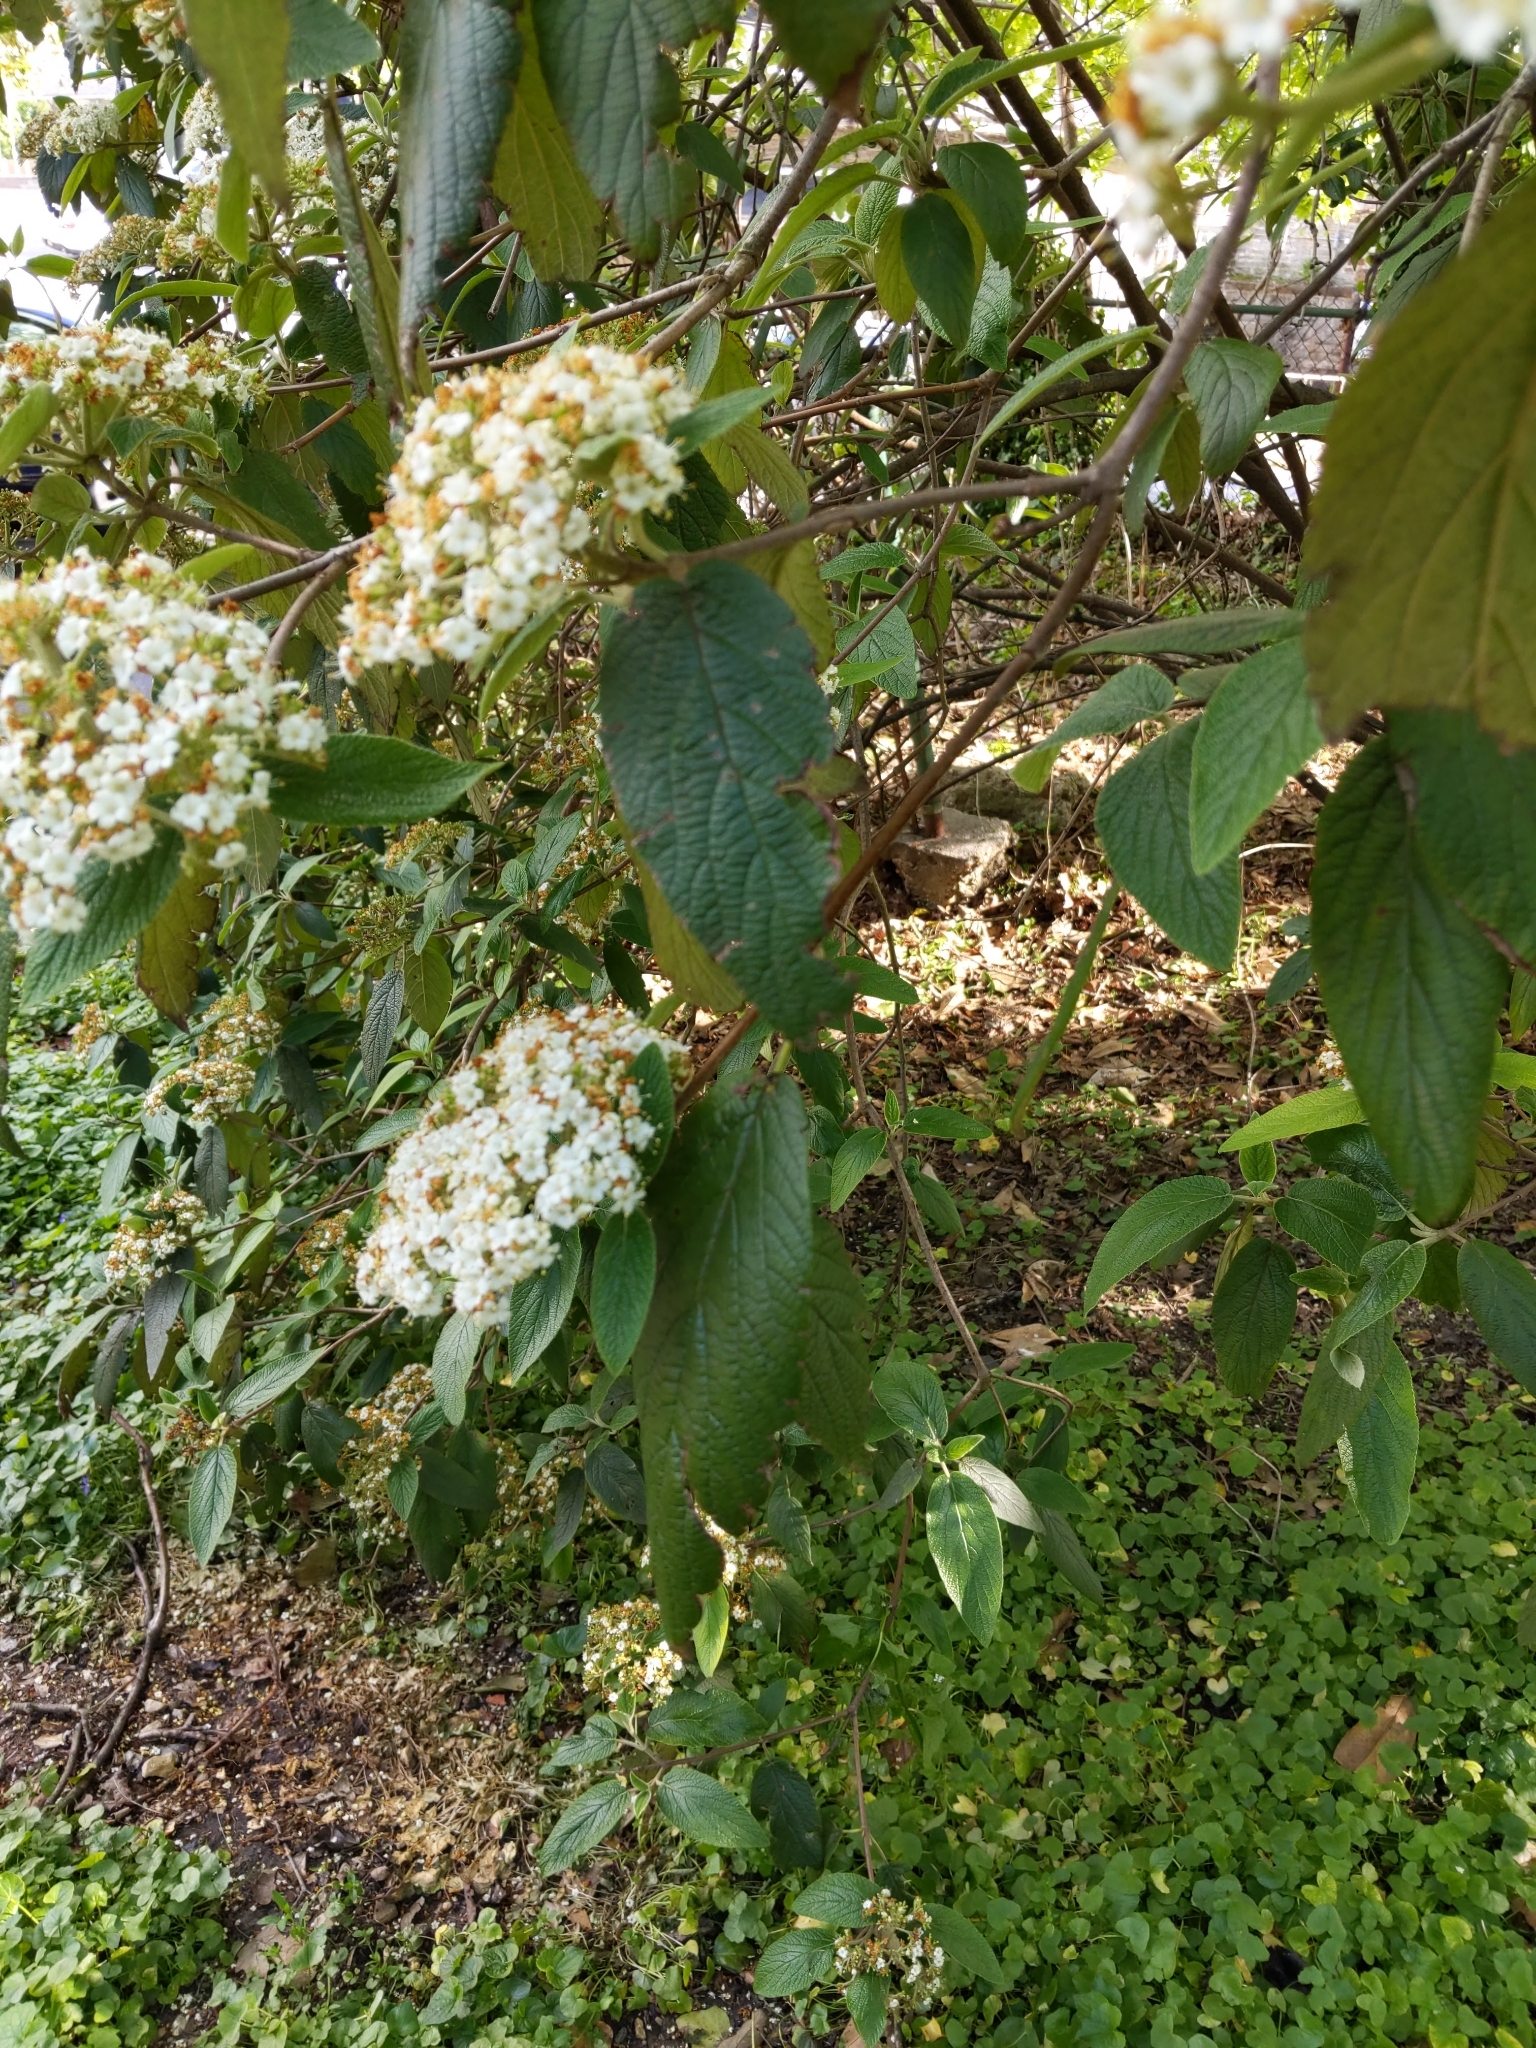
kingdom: Plantae
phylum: Tracheophyta
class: Magnoliopsida
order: Dipsacales
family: Viburnaceae
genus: Viburnum
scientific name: Viburnum rhytidophyllum
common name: Wrinkled viburnum
